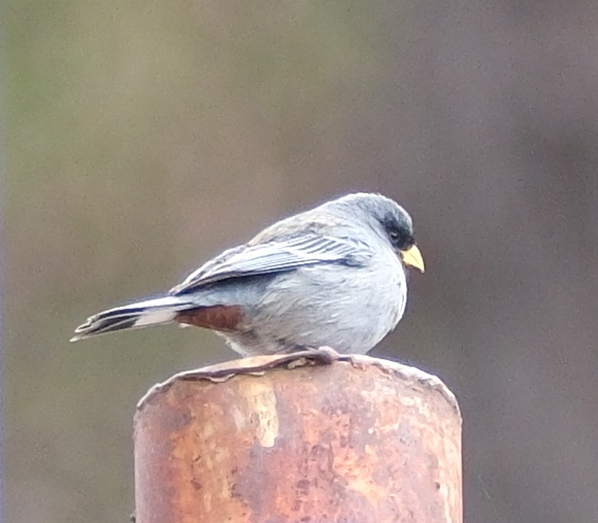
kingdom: Animalia
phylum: Chordata
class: Aves
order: Passeriformes
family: Thraupidae
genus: Catamenia
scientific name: Catamenia analis
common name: Band-tailed seedeater
